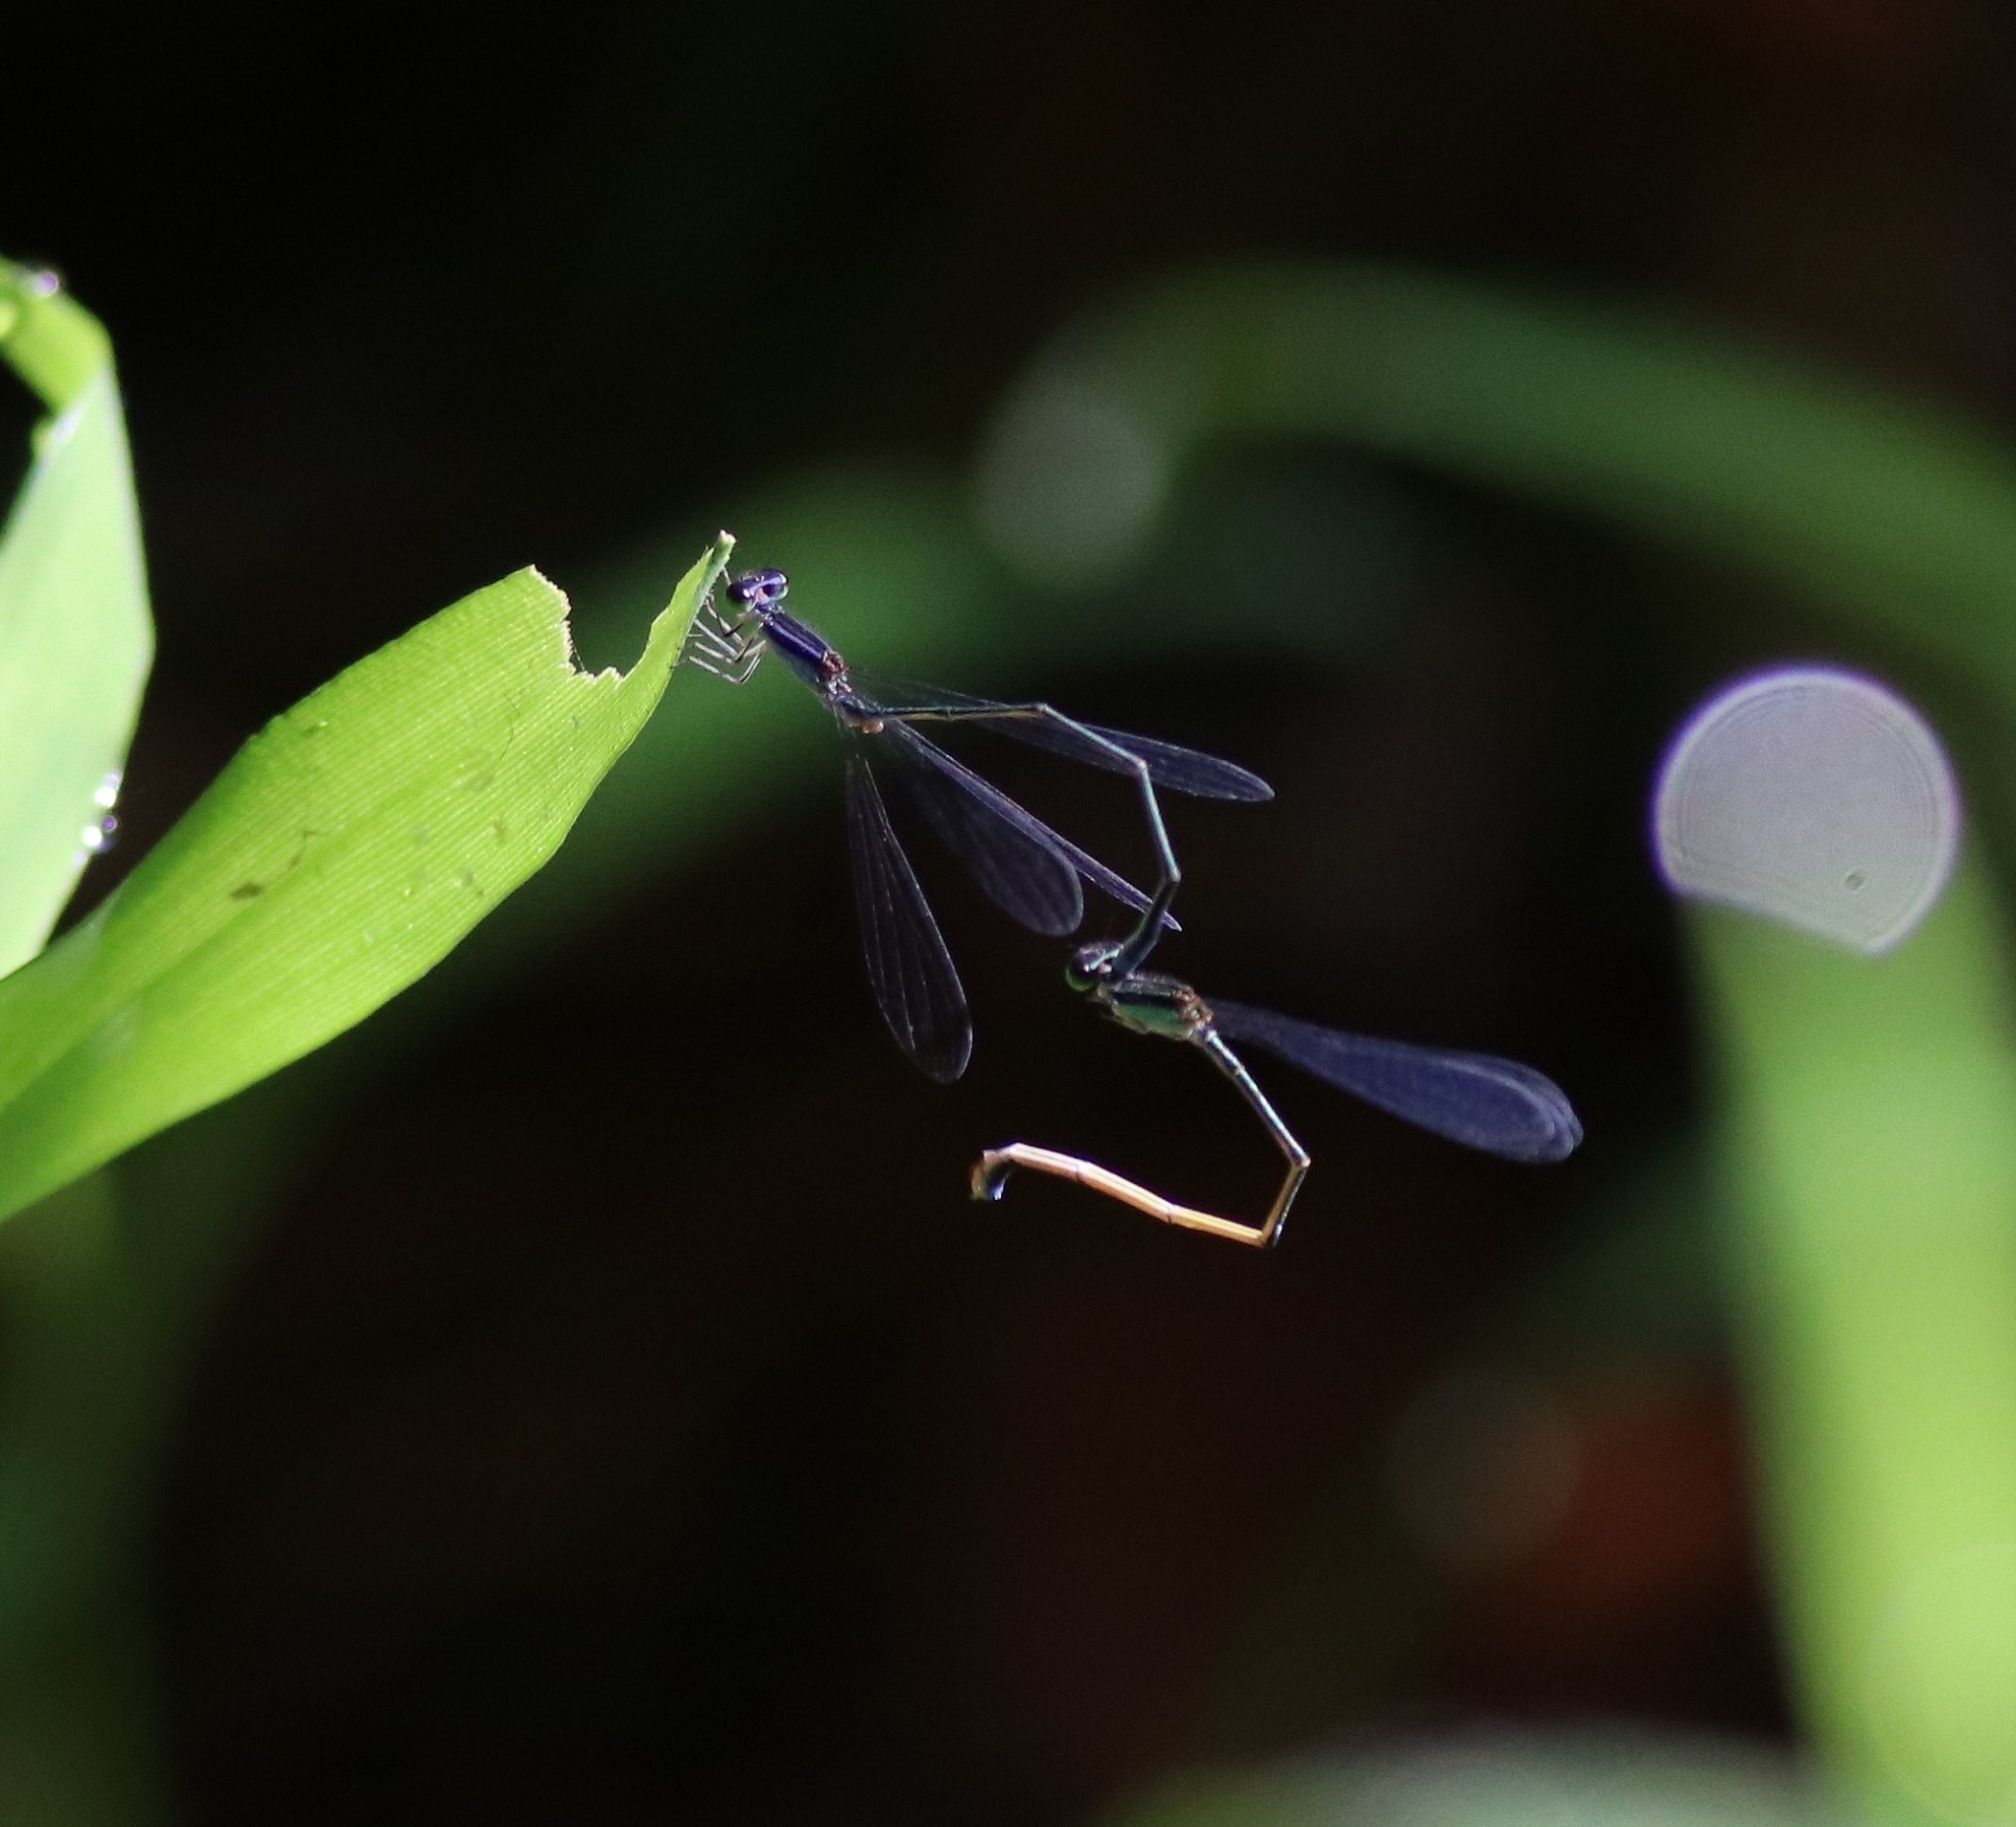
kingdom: Animalia
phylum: Arthropoda
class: Insecta
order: Odonata
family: Coenagrionidae
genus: Aciagrion
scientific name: Aciagrion approximans
